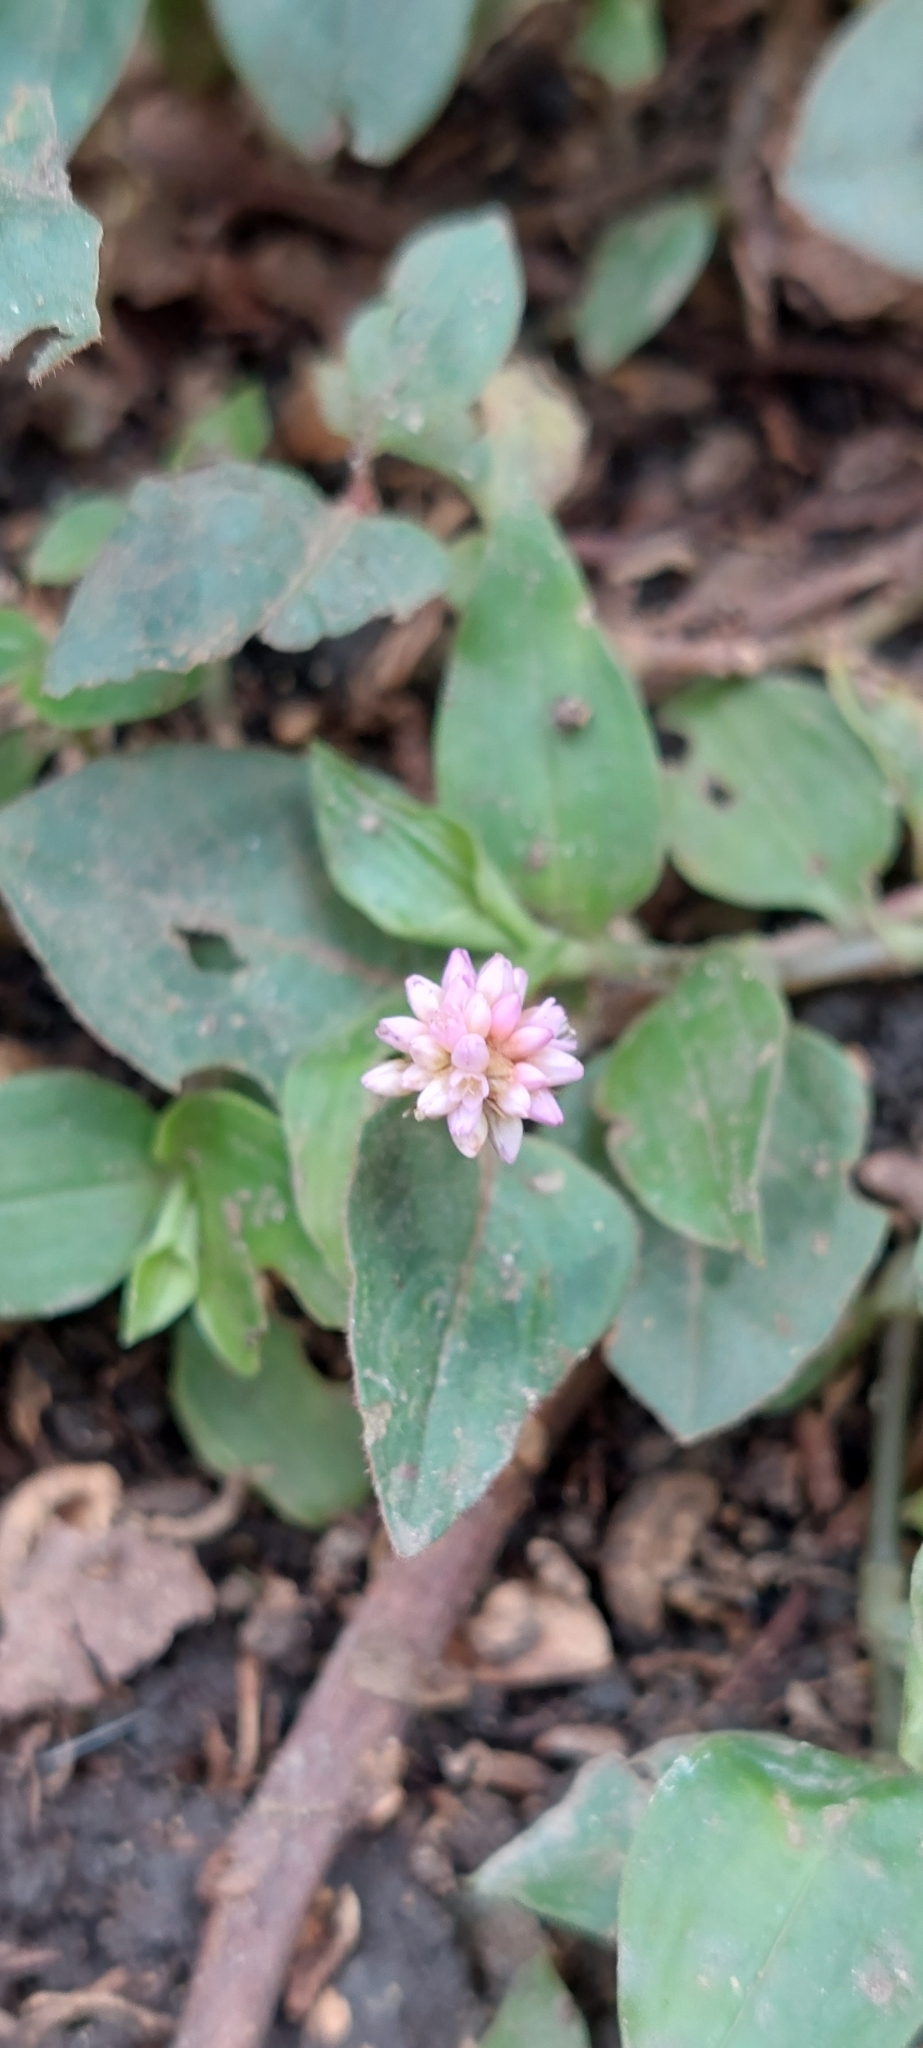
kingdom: Plantae
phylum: Tracheophyta
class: Magnoliopsida
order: Caryophyllales
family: Polygonaceae
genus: Persicaria
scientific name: Persicaria capitata
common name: Pinkhead smartweed
